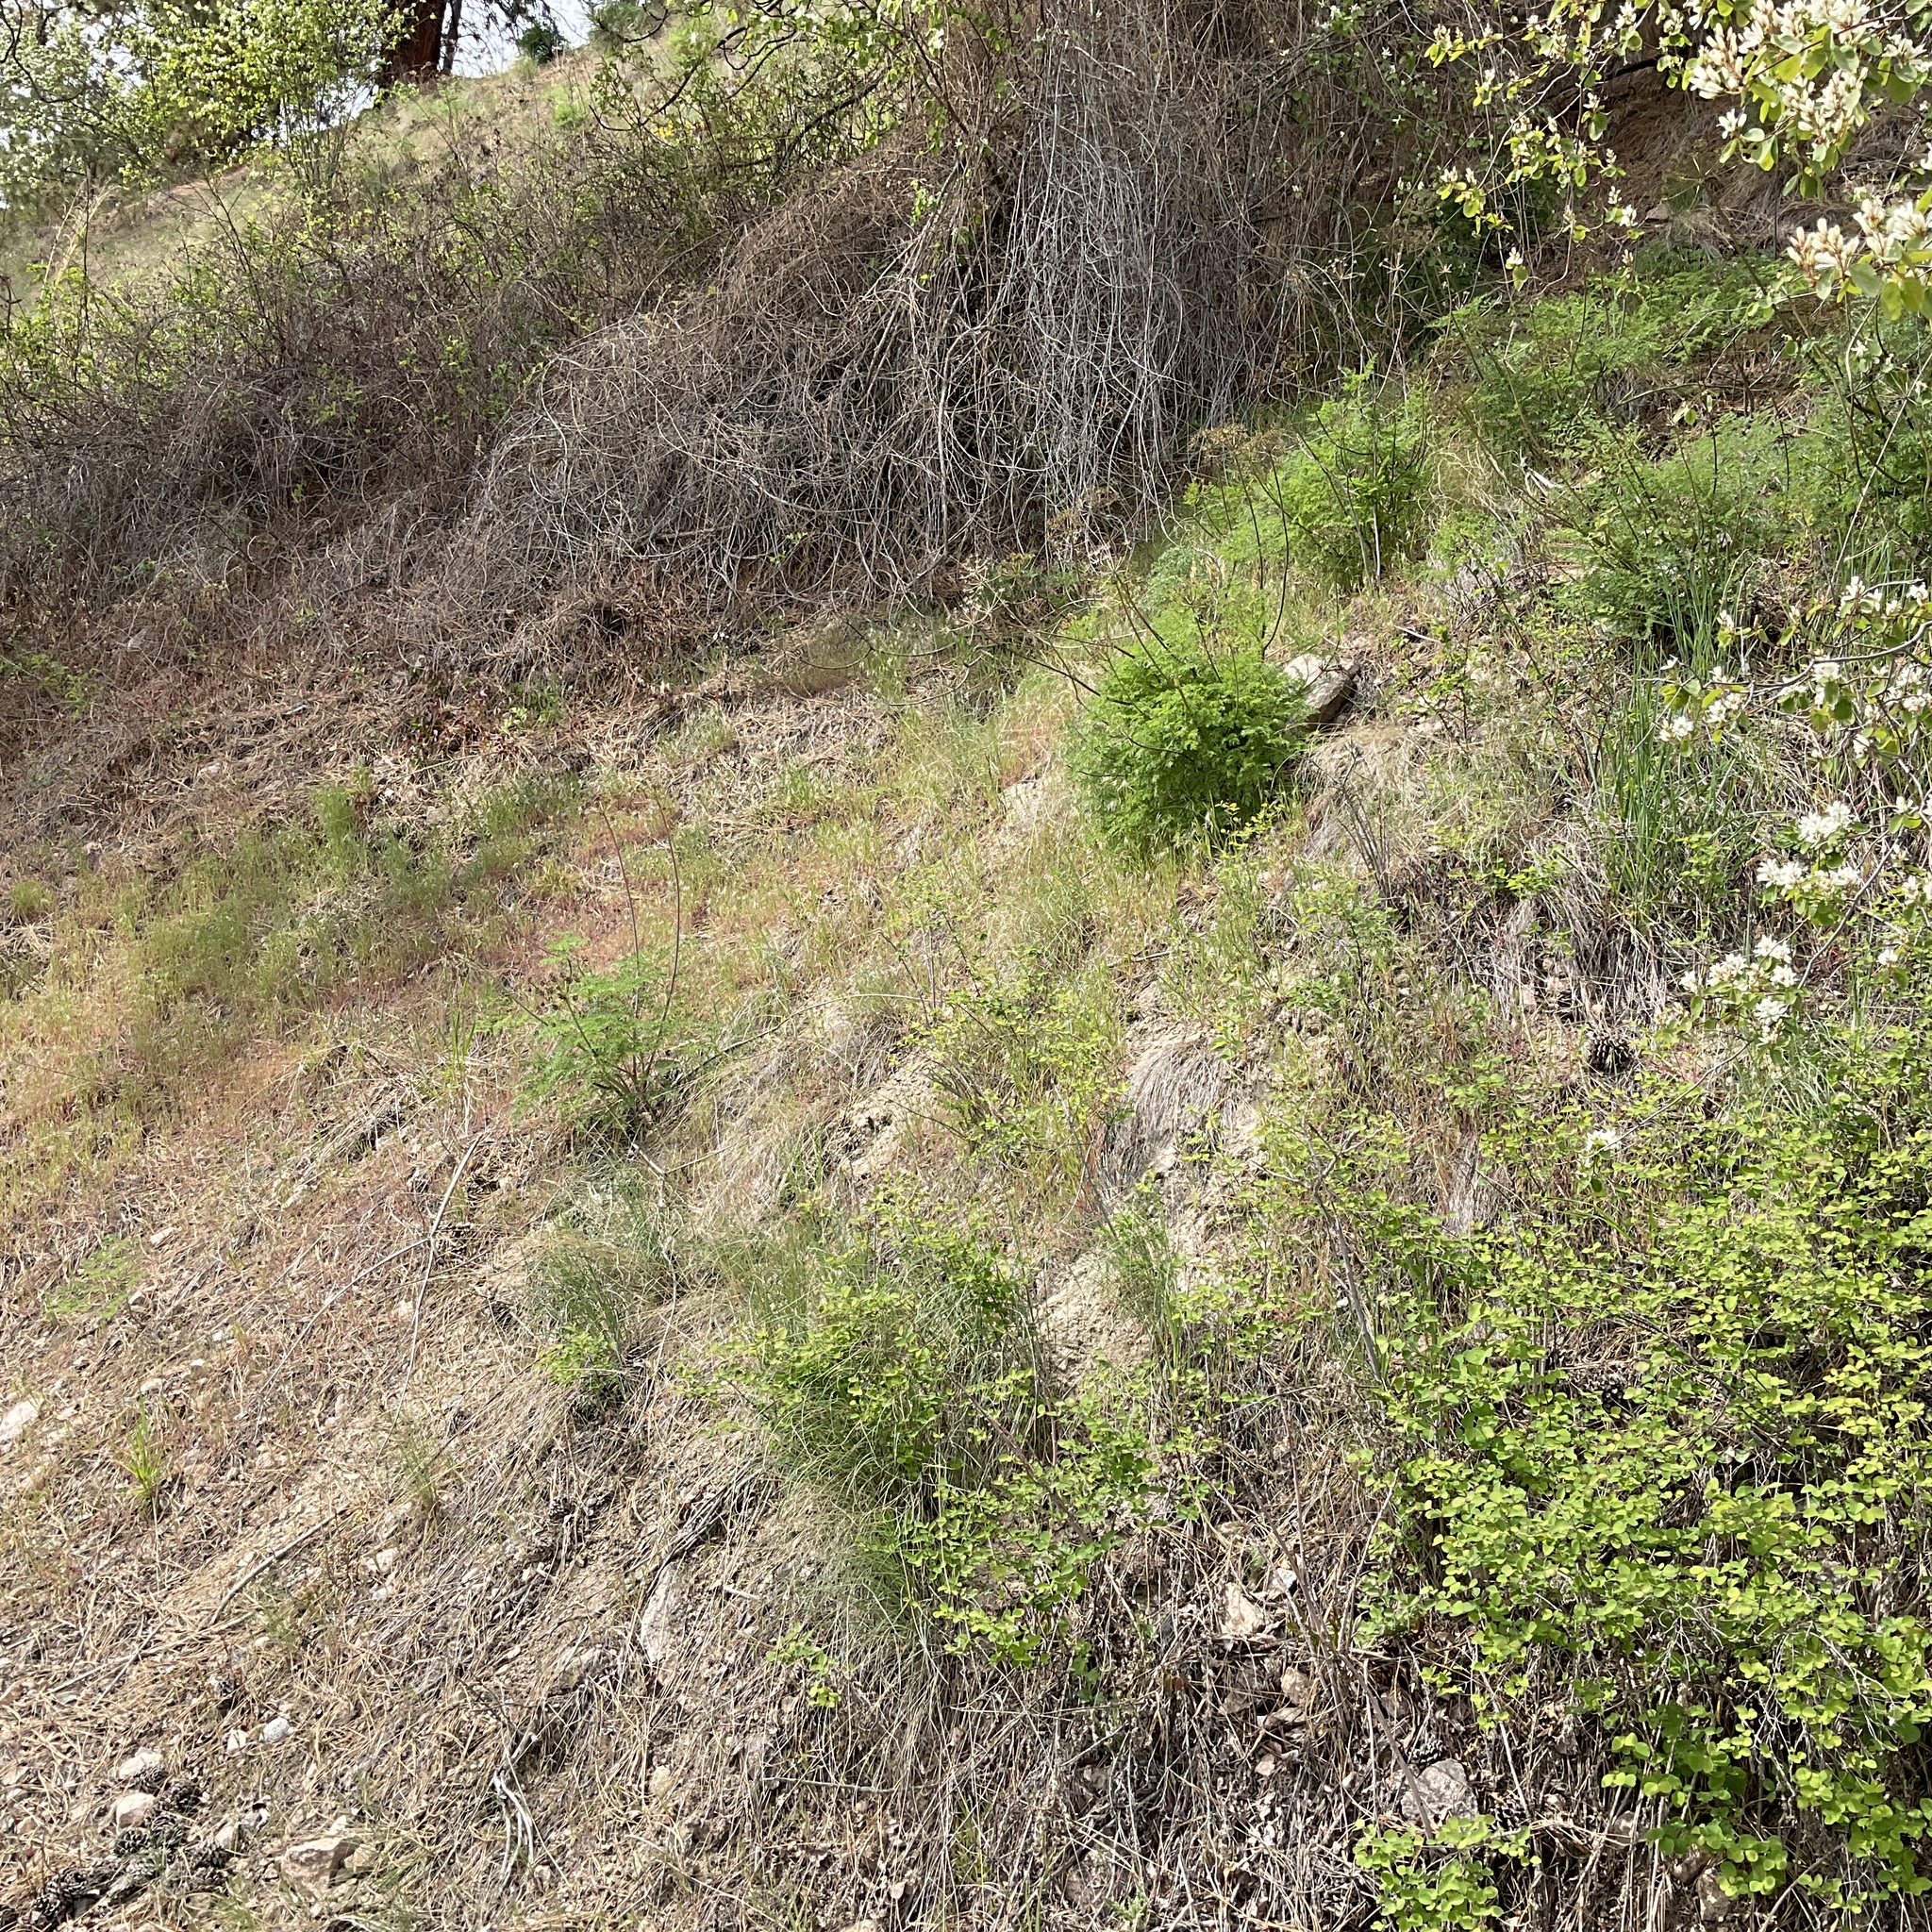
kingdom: Plantae
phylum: Tracheophyta
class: Magnoliopsida
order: Apiales
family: Apiaceae
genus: Lomatium
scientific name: Lomatium multifidum
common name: Carrot-leaved biscuitroot
